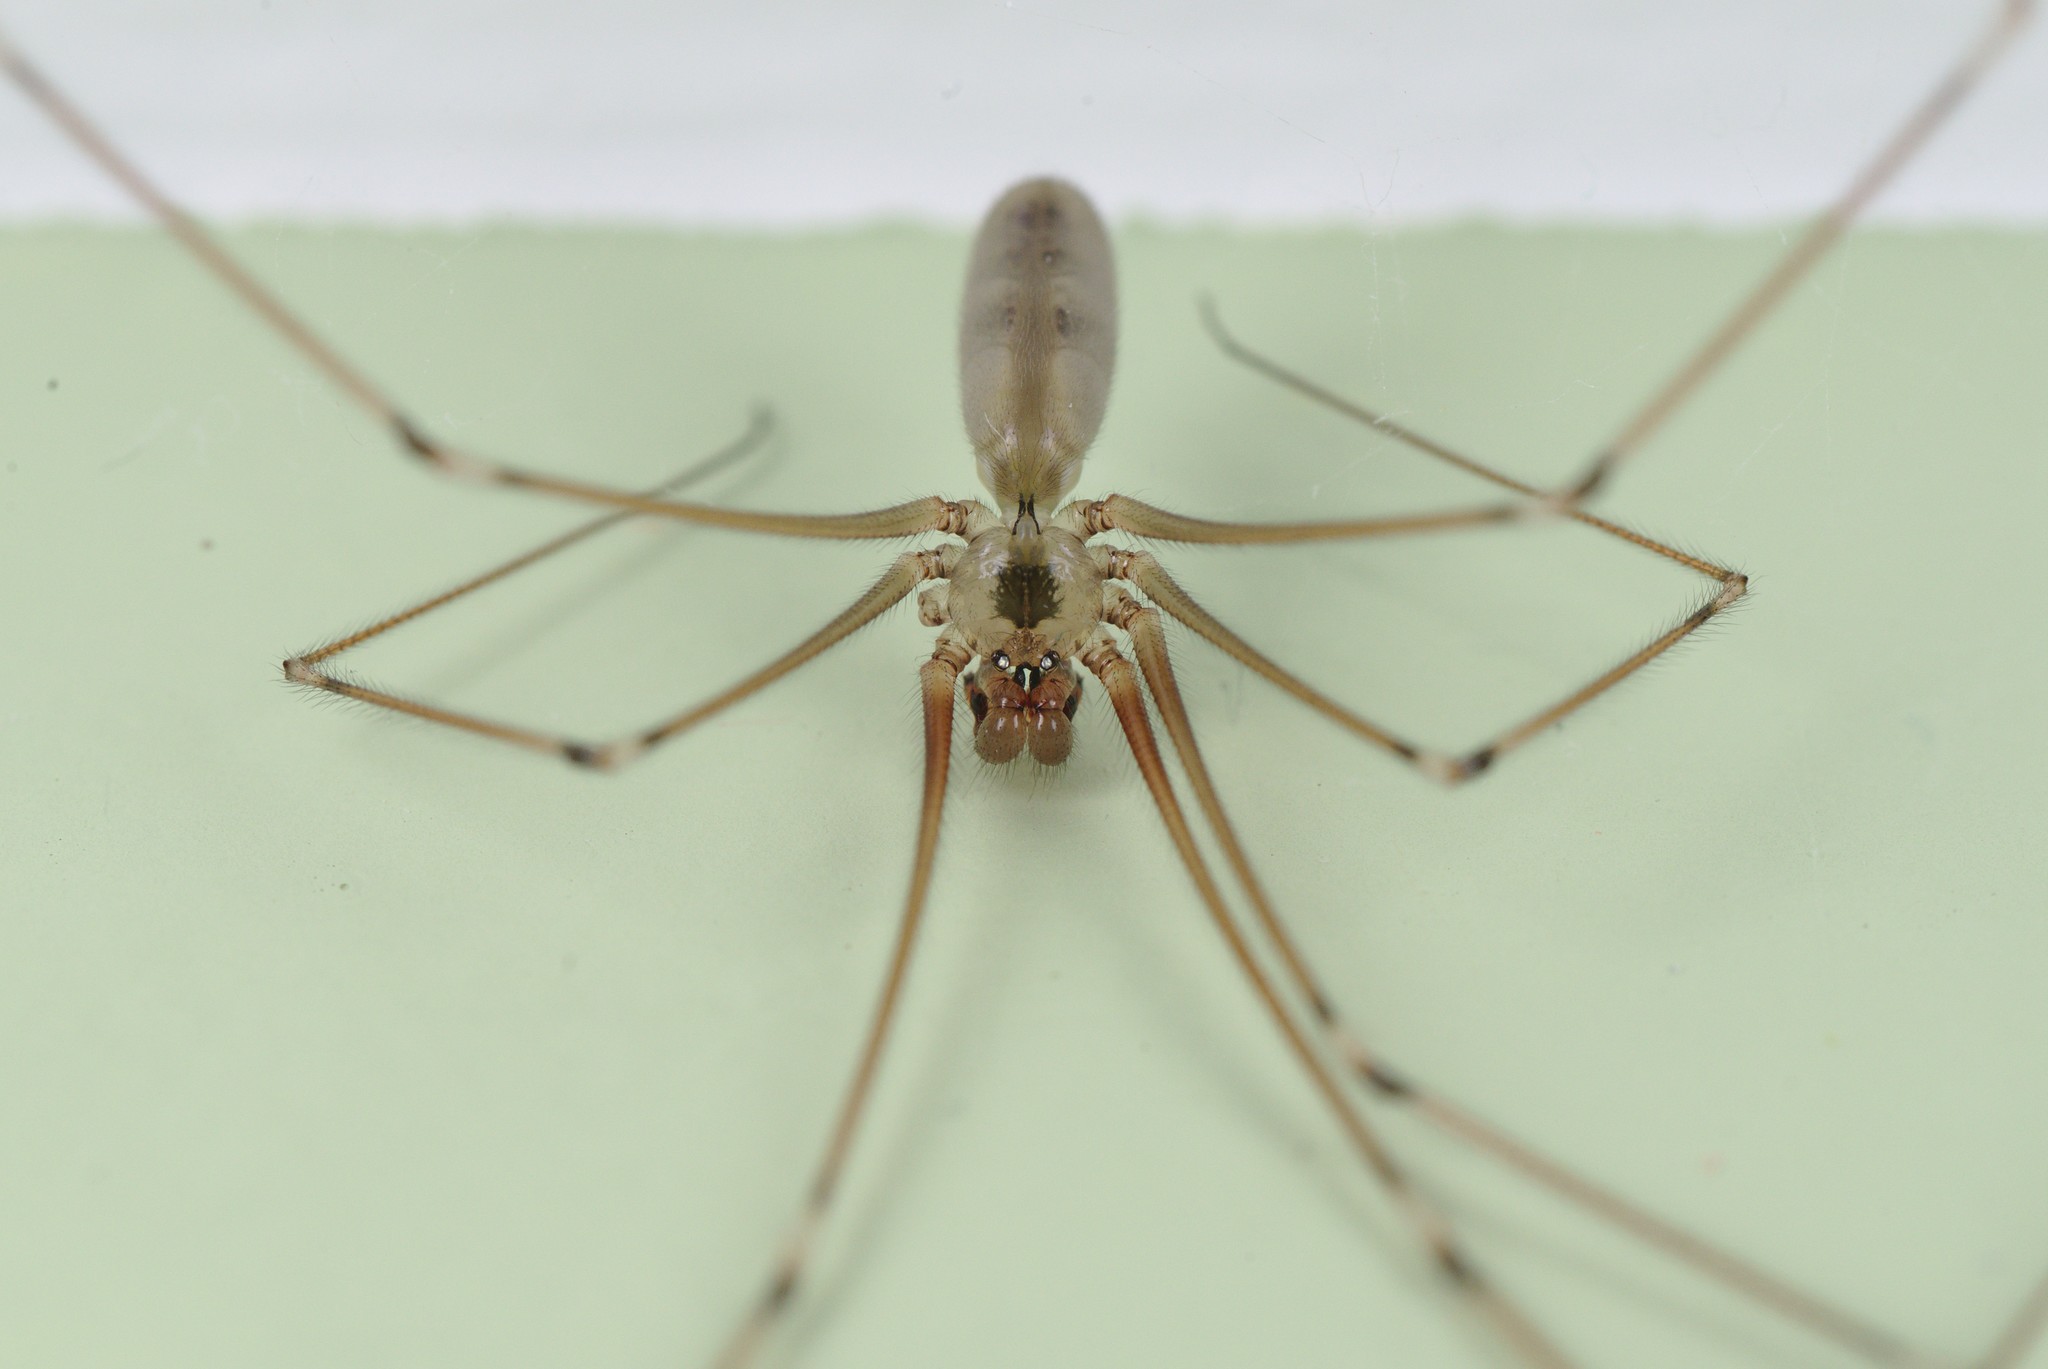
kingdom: Animalia
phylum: Arthropoda
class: Arachnida
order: Araneae
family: Pholcidae
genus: Pholcus
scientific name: Pholcus phalangioides
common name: Longbodied cellar spider
